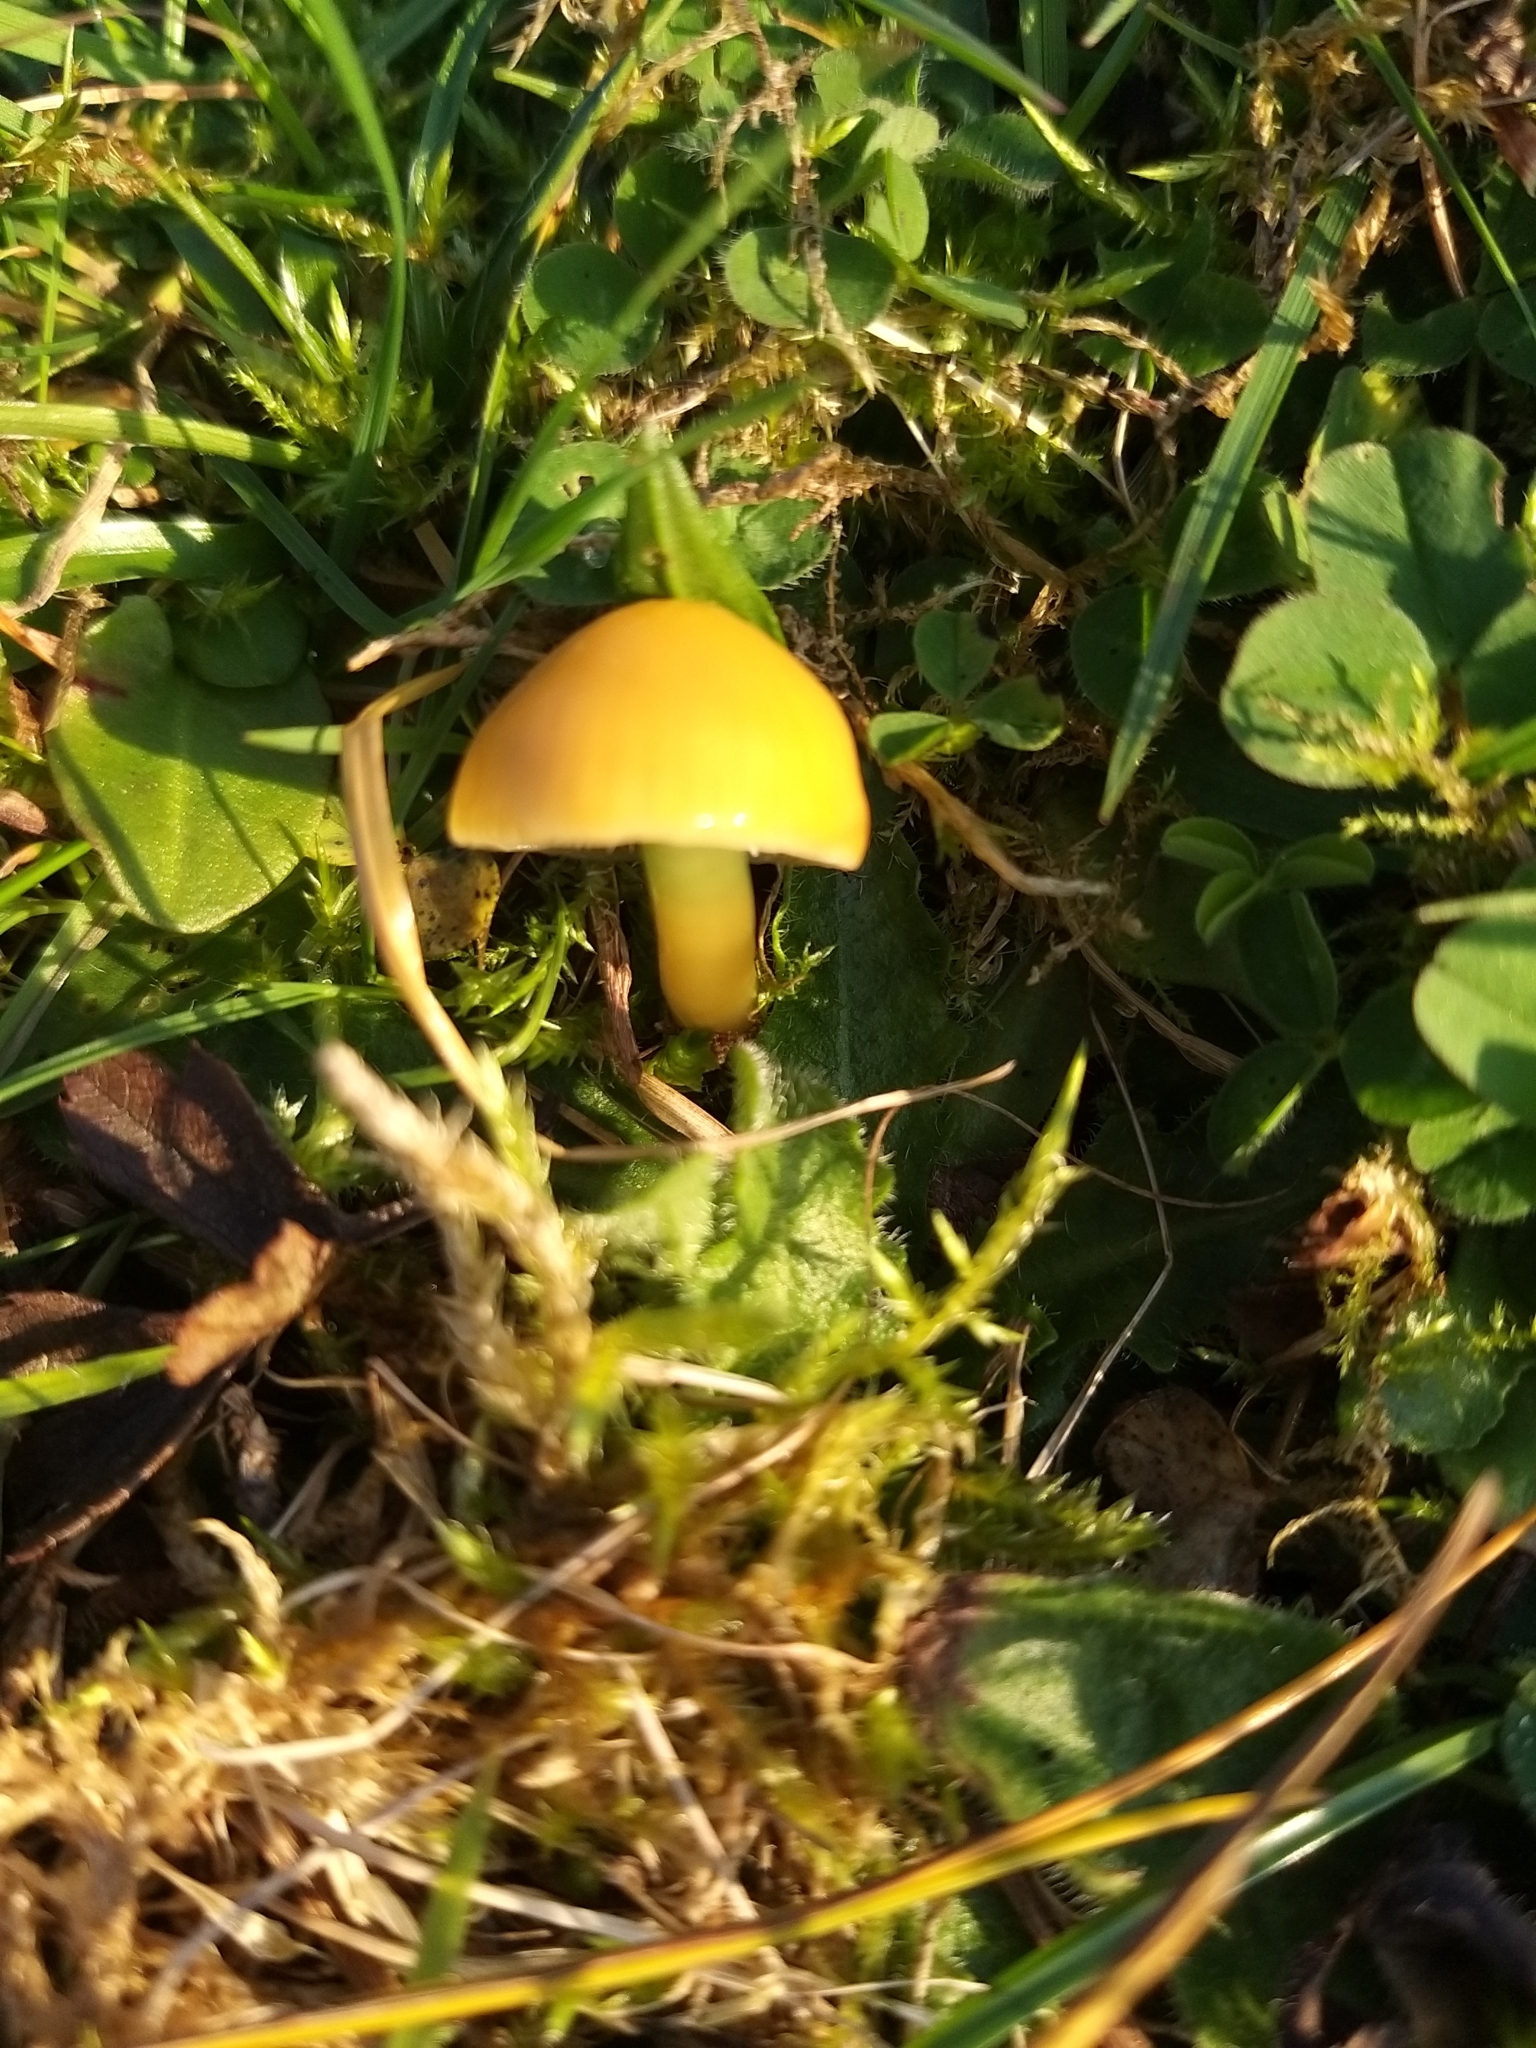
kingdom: Fungi
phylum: Basidiomycota
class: Agaricomycetes
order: Agaricales
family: Hygrophoraceae
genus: Gliophorus
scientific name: Gliophorus psittacinus
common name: Parrot wax-cap
